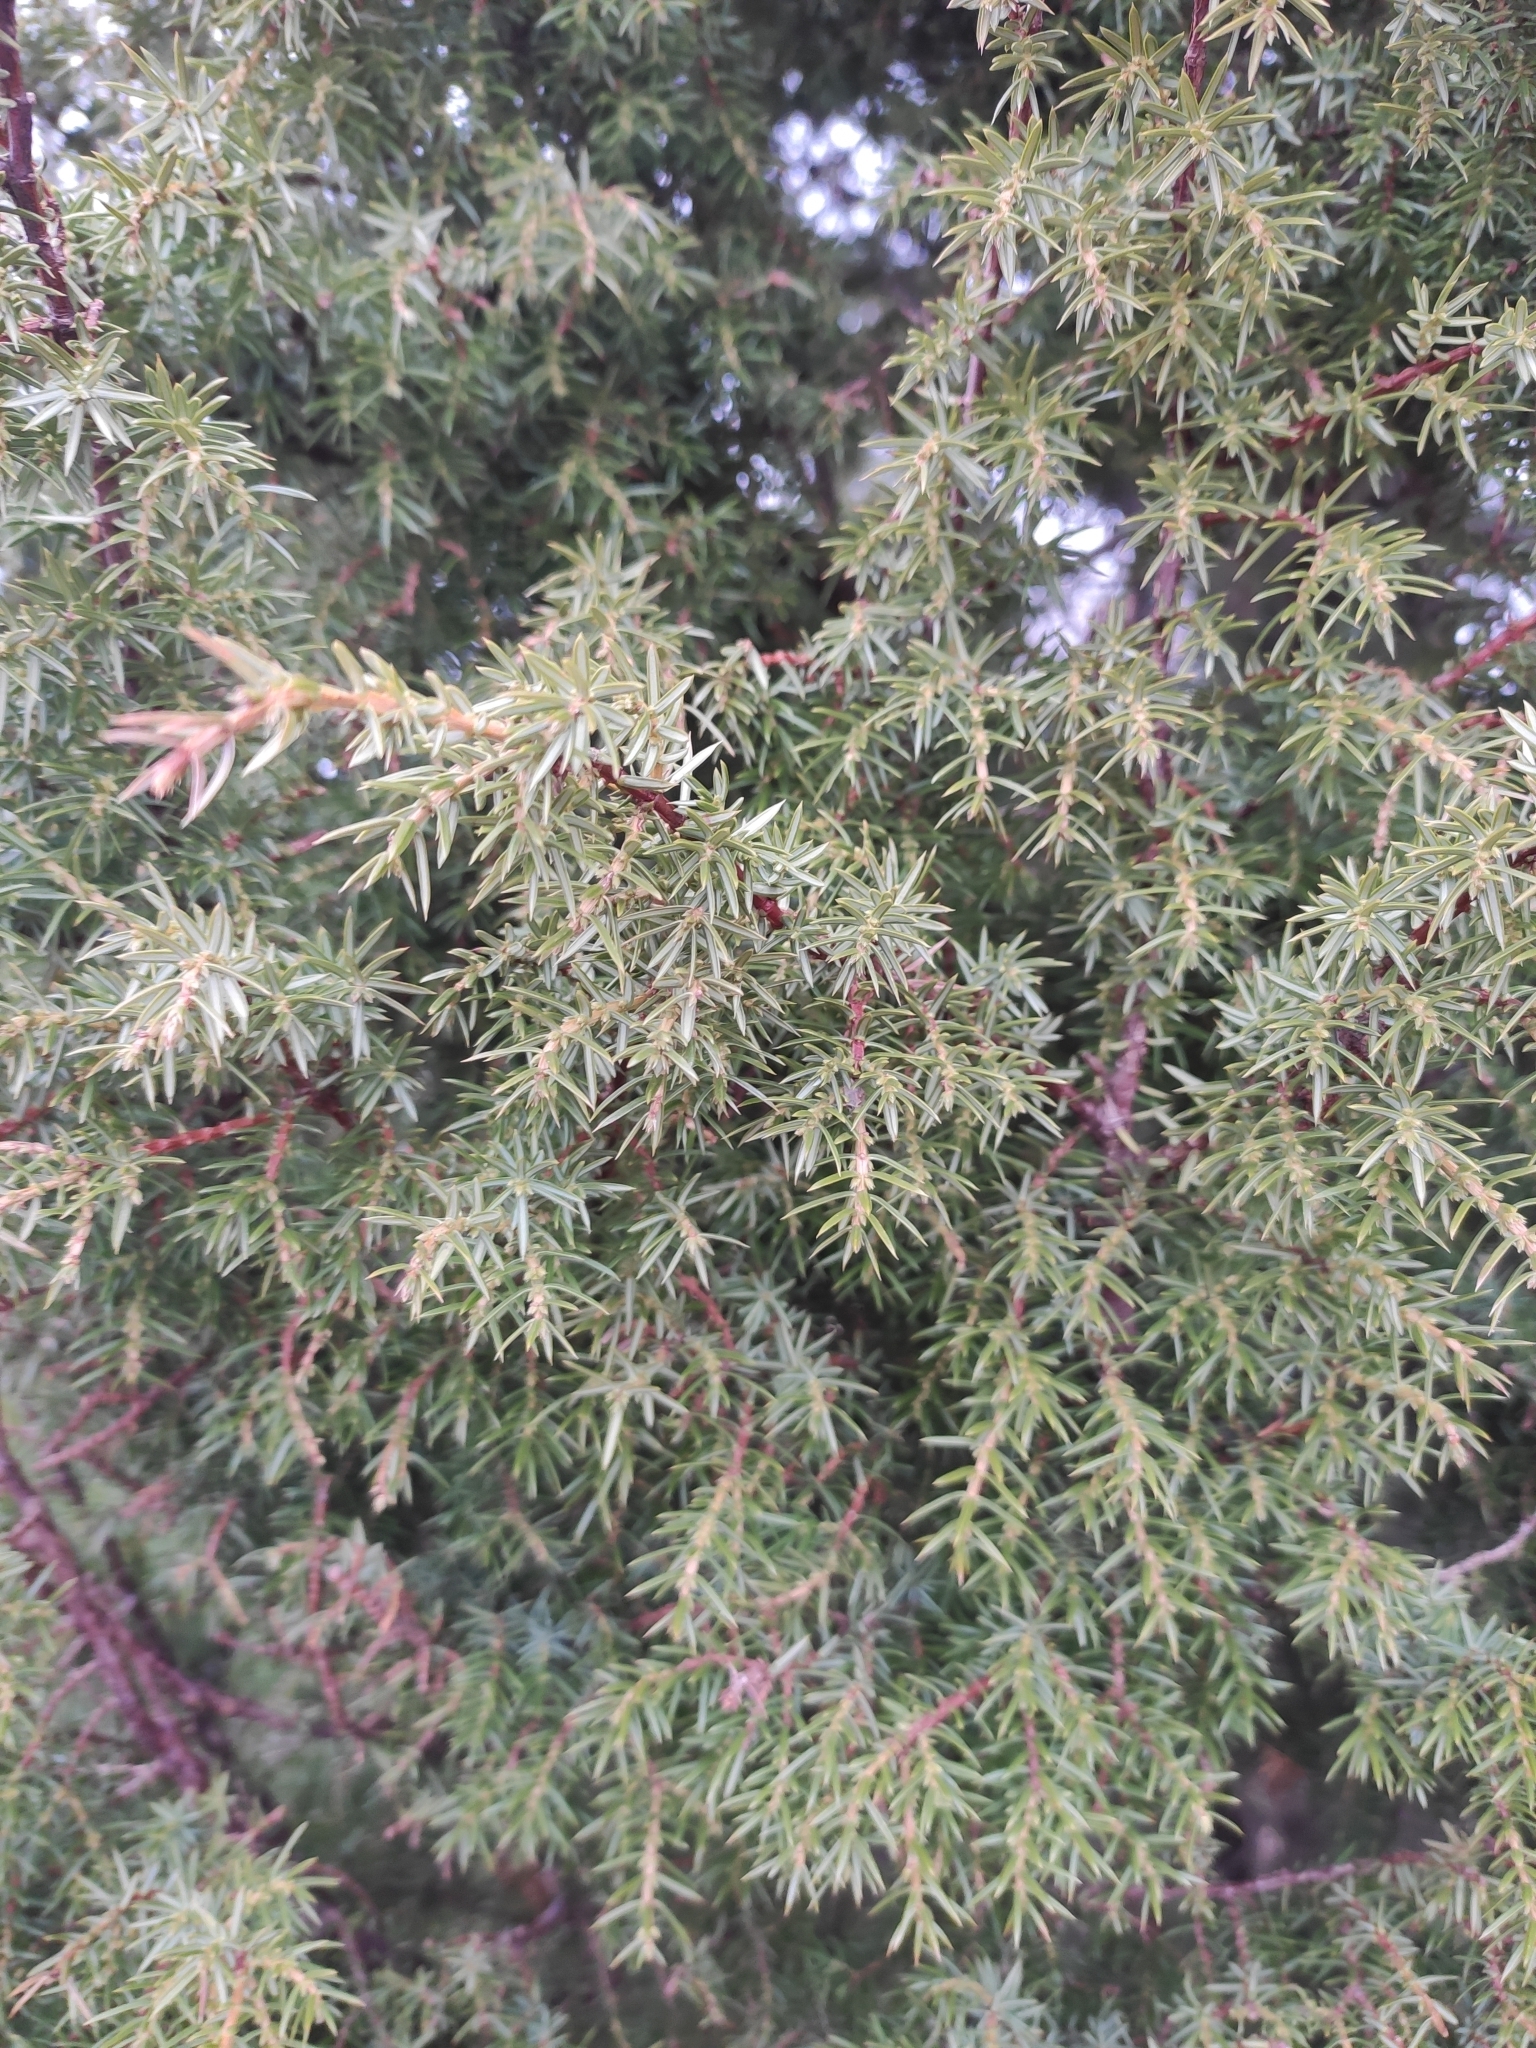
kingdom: Plantae
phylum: Tracheophyta
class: Pinopsida
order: Pinales
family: Cupressaceae
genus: Juniperus
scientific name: Juniperus communis
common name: Common juniper
